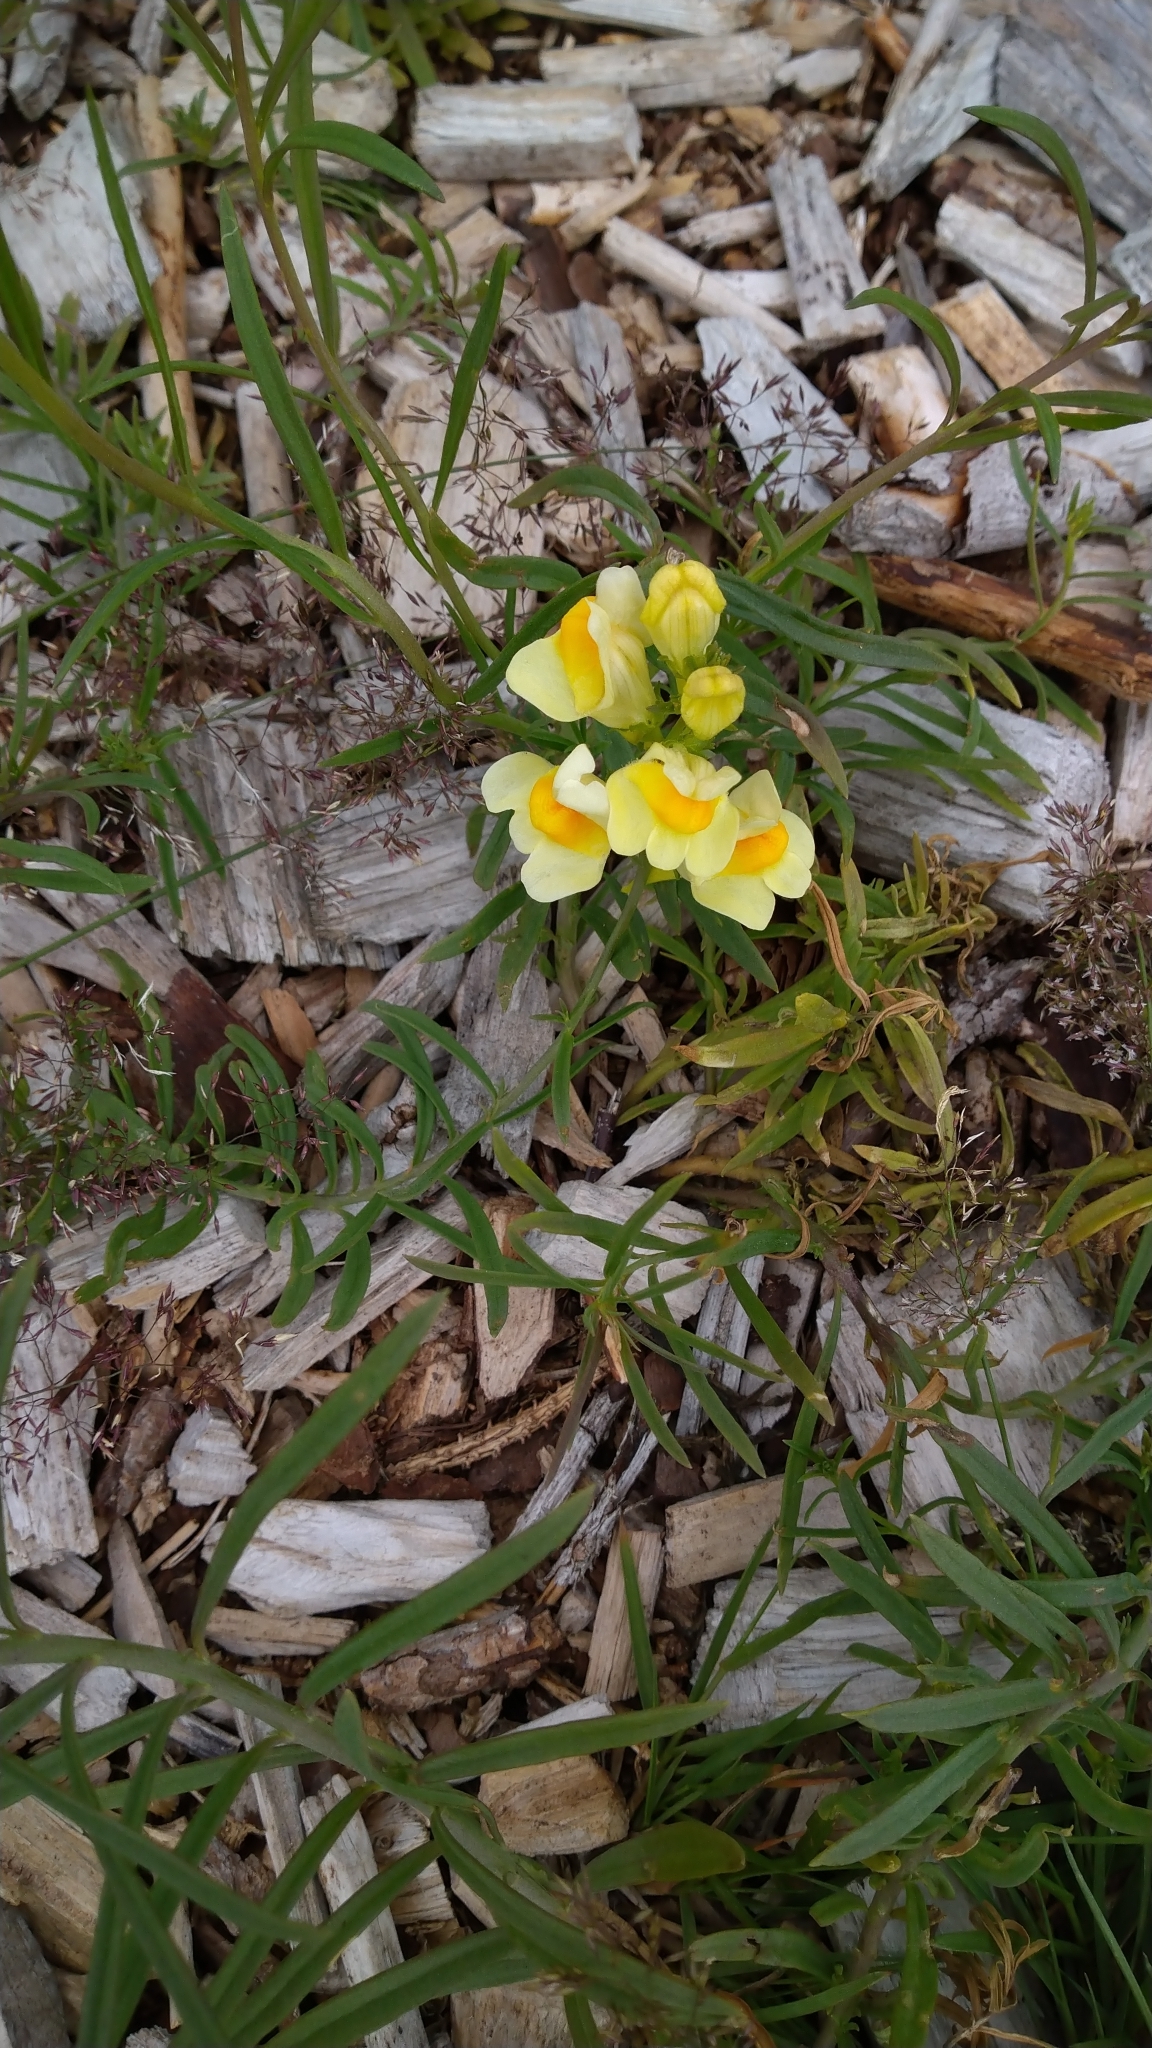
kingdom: Plantae
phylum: Tracheophyta
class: Magnoliopsida
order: Lamiales
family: Plantaginaceae
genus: Linaria
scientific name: Linaria vulgaris
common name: Butter and eggs
